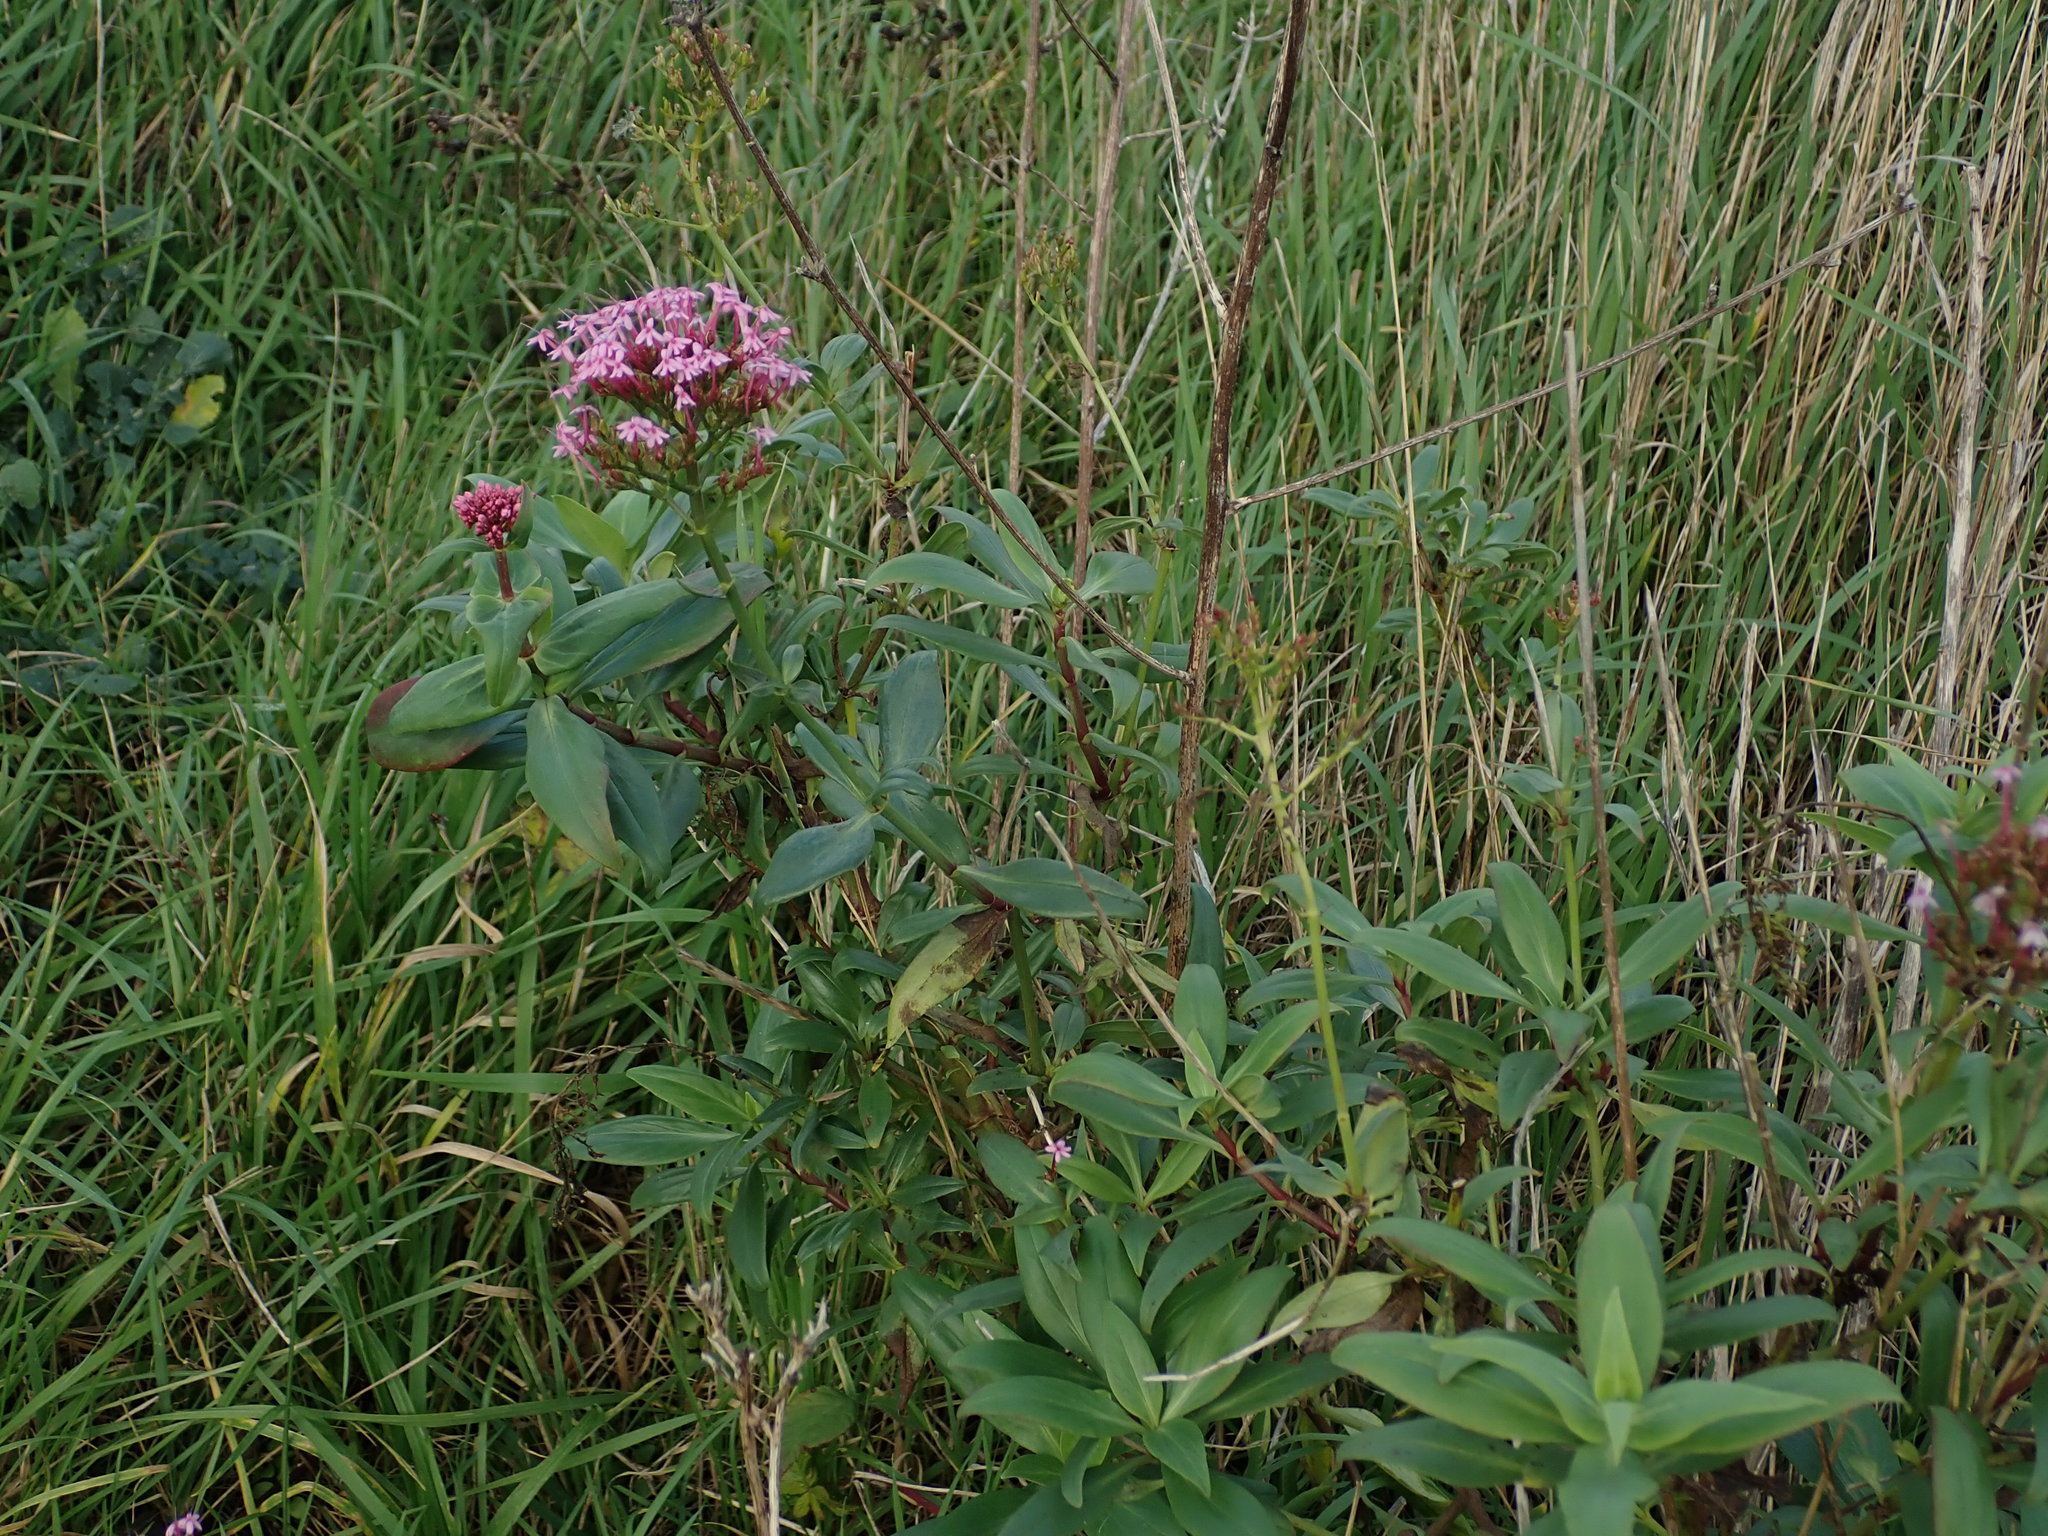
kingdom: Plantae
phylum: Tracheophyta
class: Magnoliopsida
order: Dipsacales
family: Caprifoliaceae
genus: Centranthus
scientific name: Centranthus ruber
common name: Red valerian
